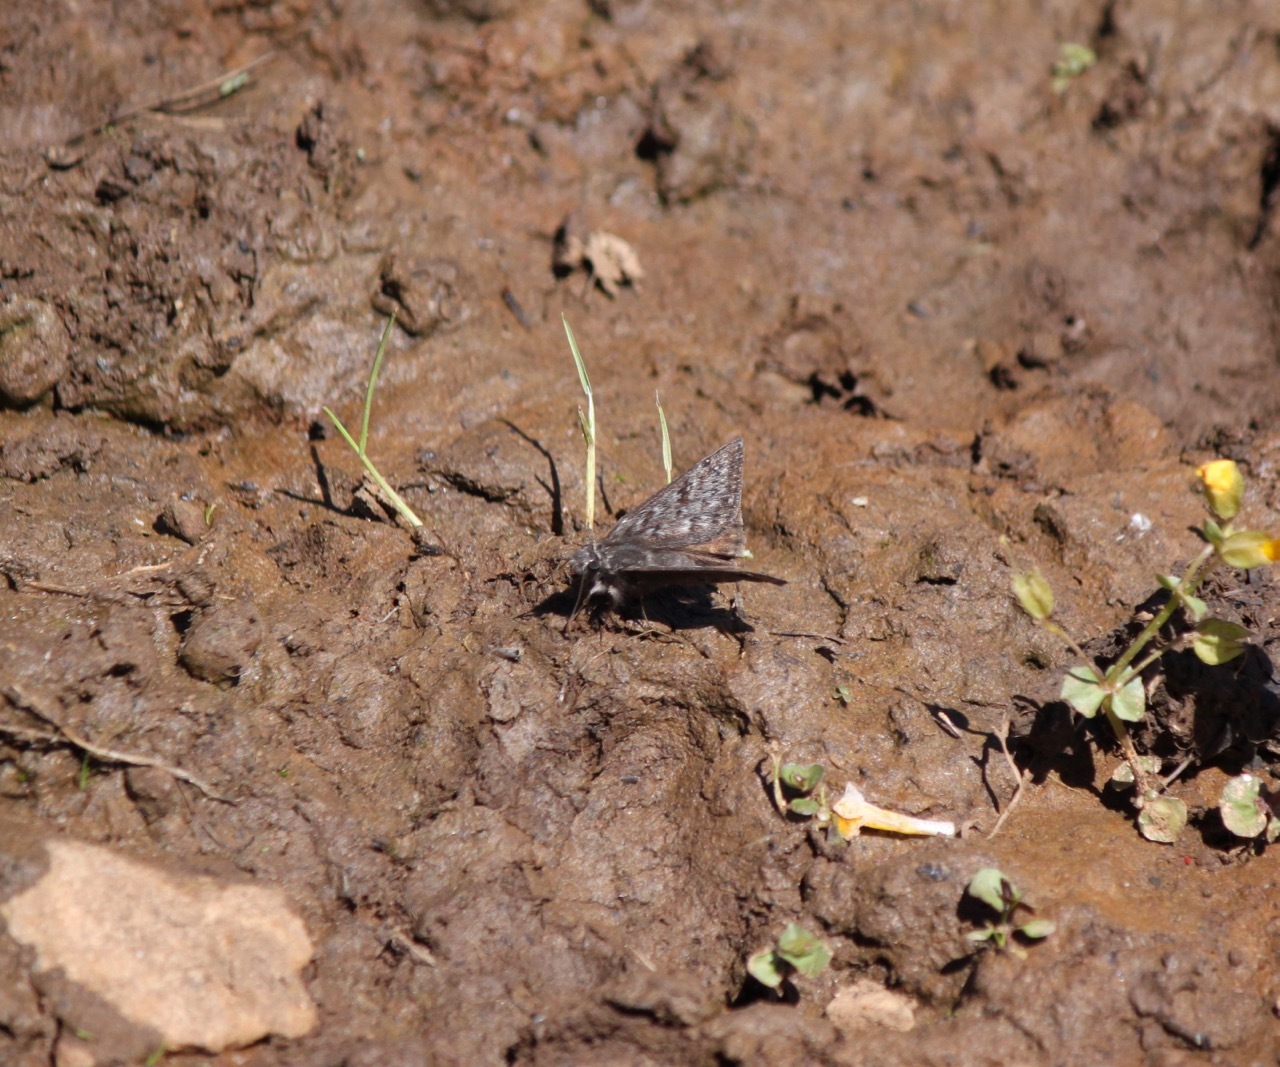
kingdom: Animalia
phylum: Arthropoda
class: Insecta
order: Lepidoptera
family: Hesperiidae
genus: Erynnis
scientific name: Erynnis propertius
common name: Propertius duskywing
